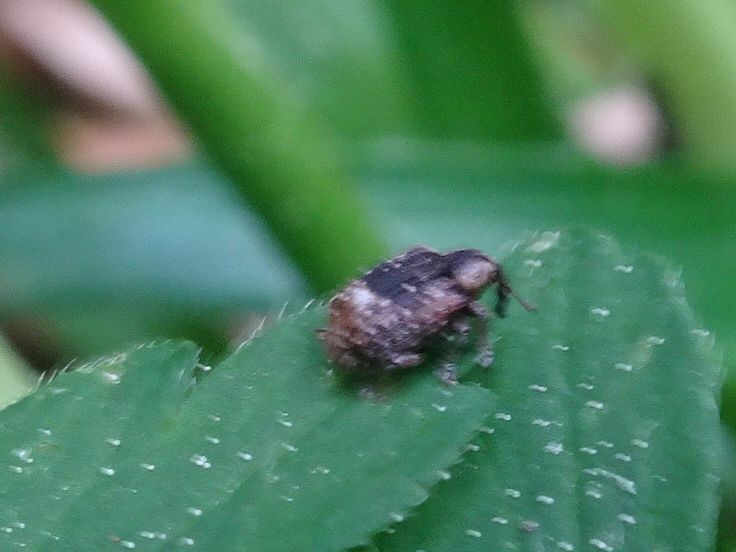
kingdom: Animalia
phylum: Arthropoda
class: Insecta
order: Coleoptera
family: Curculionidae
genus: Stereonychus
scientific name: Stereonychus fraxini
